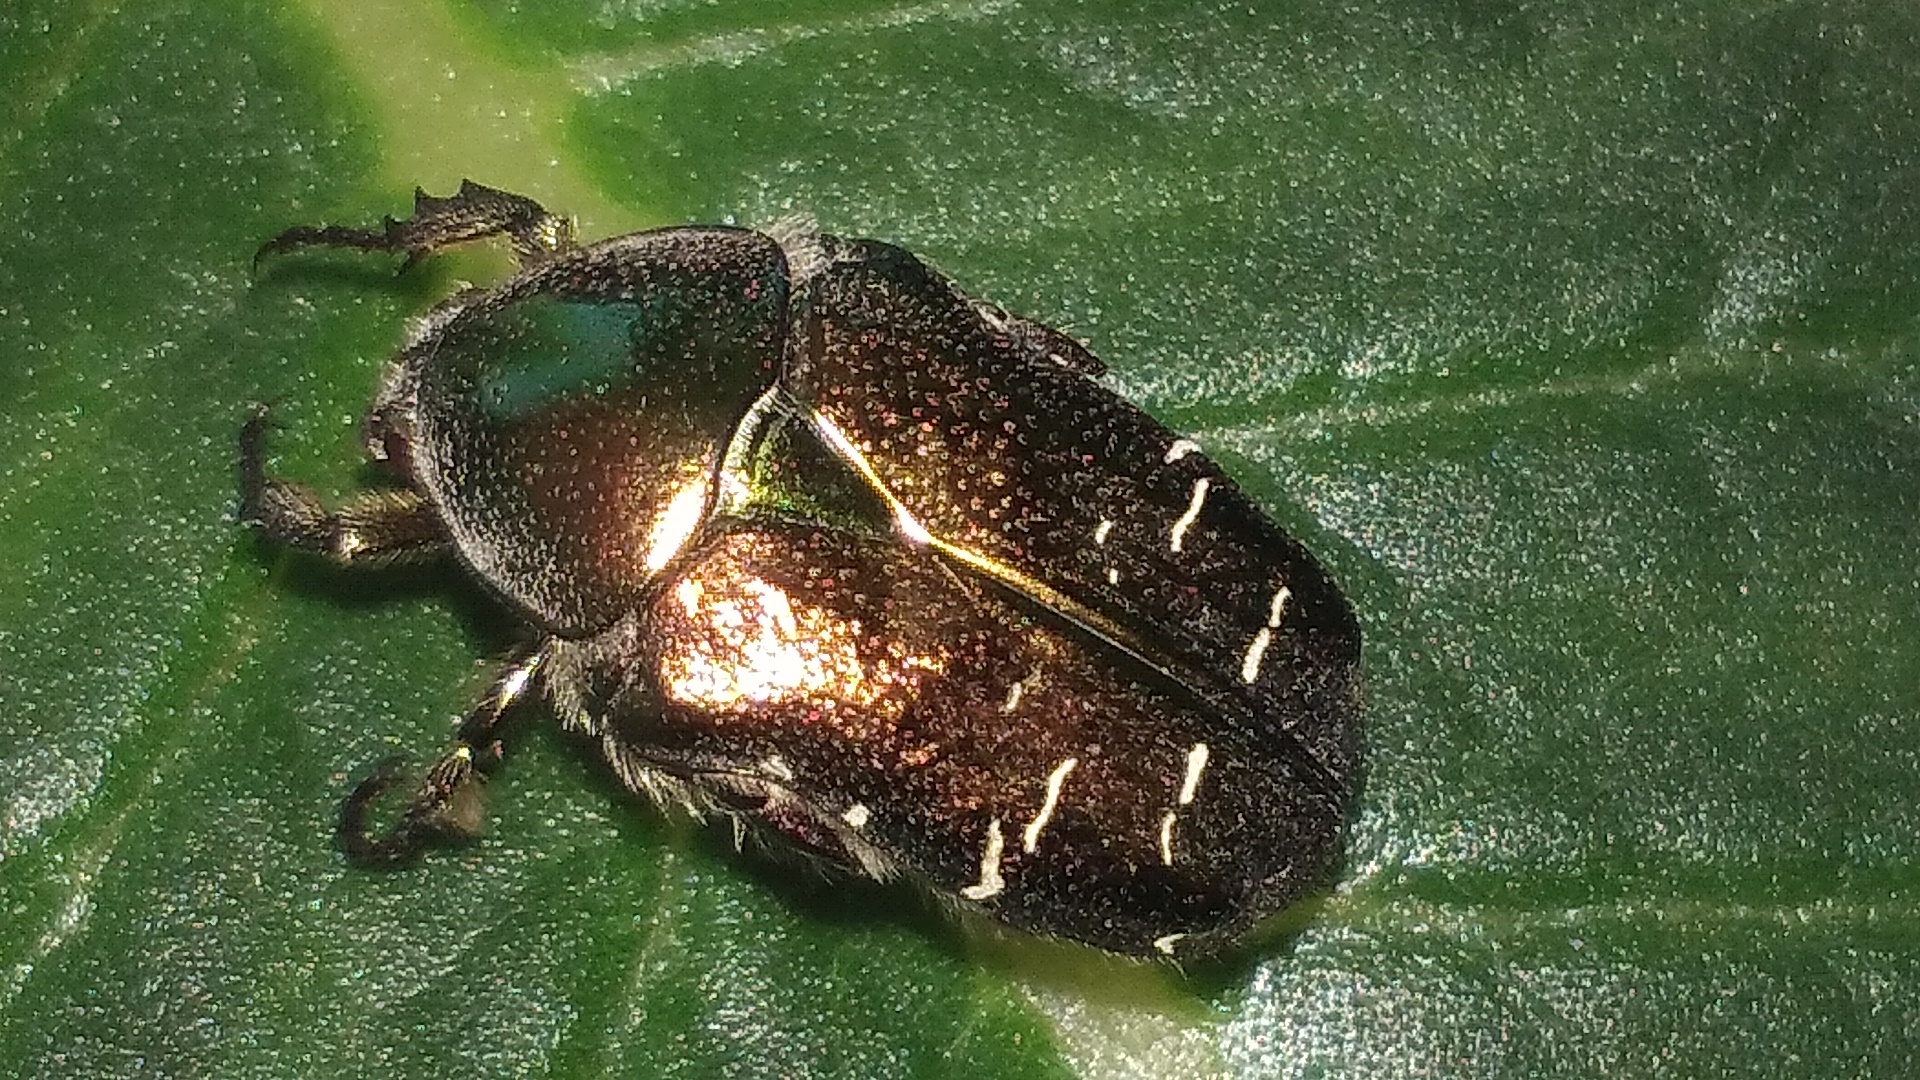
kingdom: Animalia
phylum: Arthropoda
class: Insecta
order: Coleoptera
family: Scarabaeidae
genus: Cetonia
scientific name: Cetonia aurata
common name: Rose chafer
